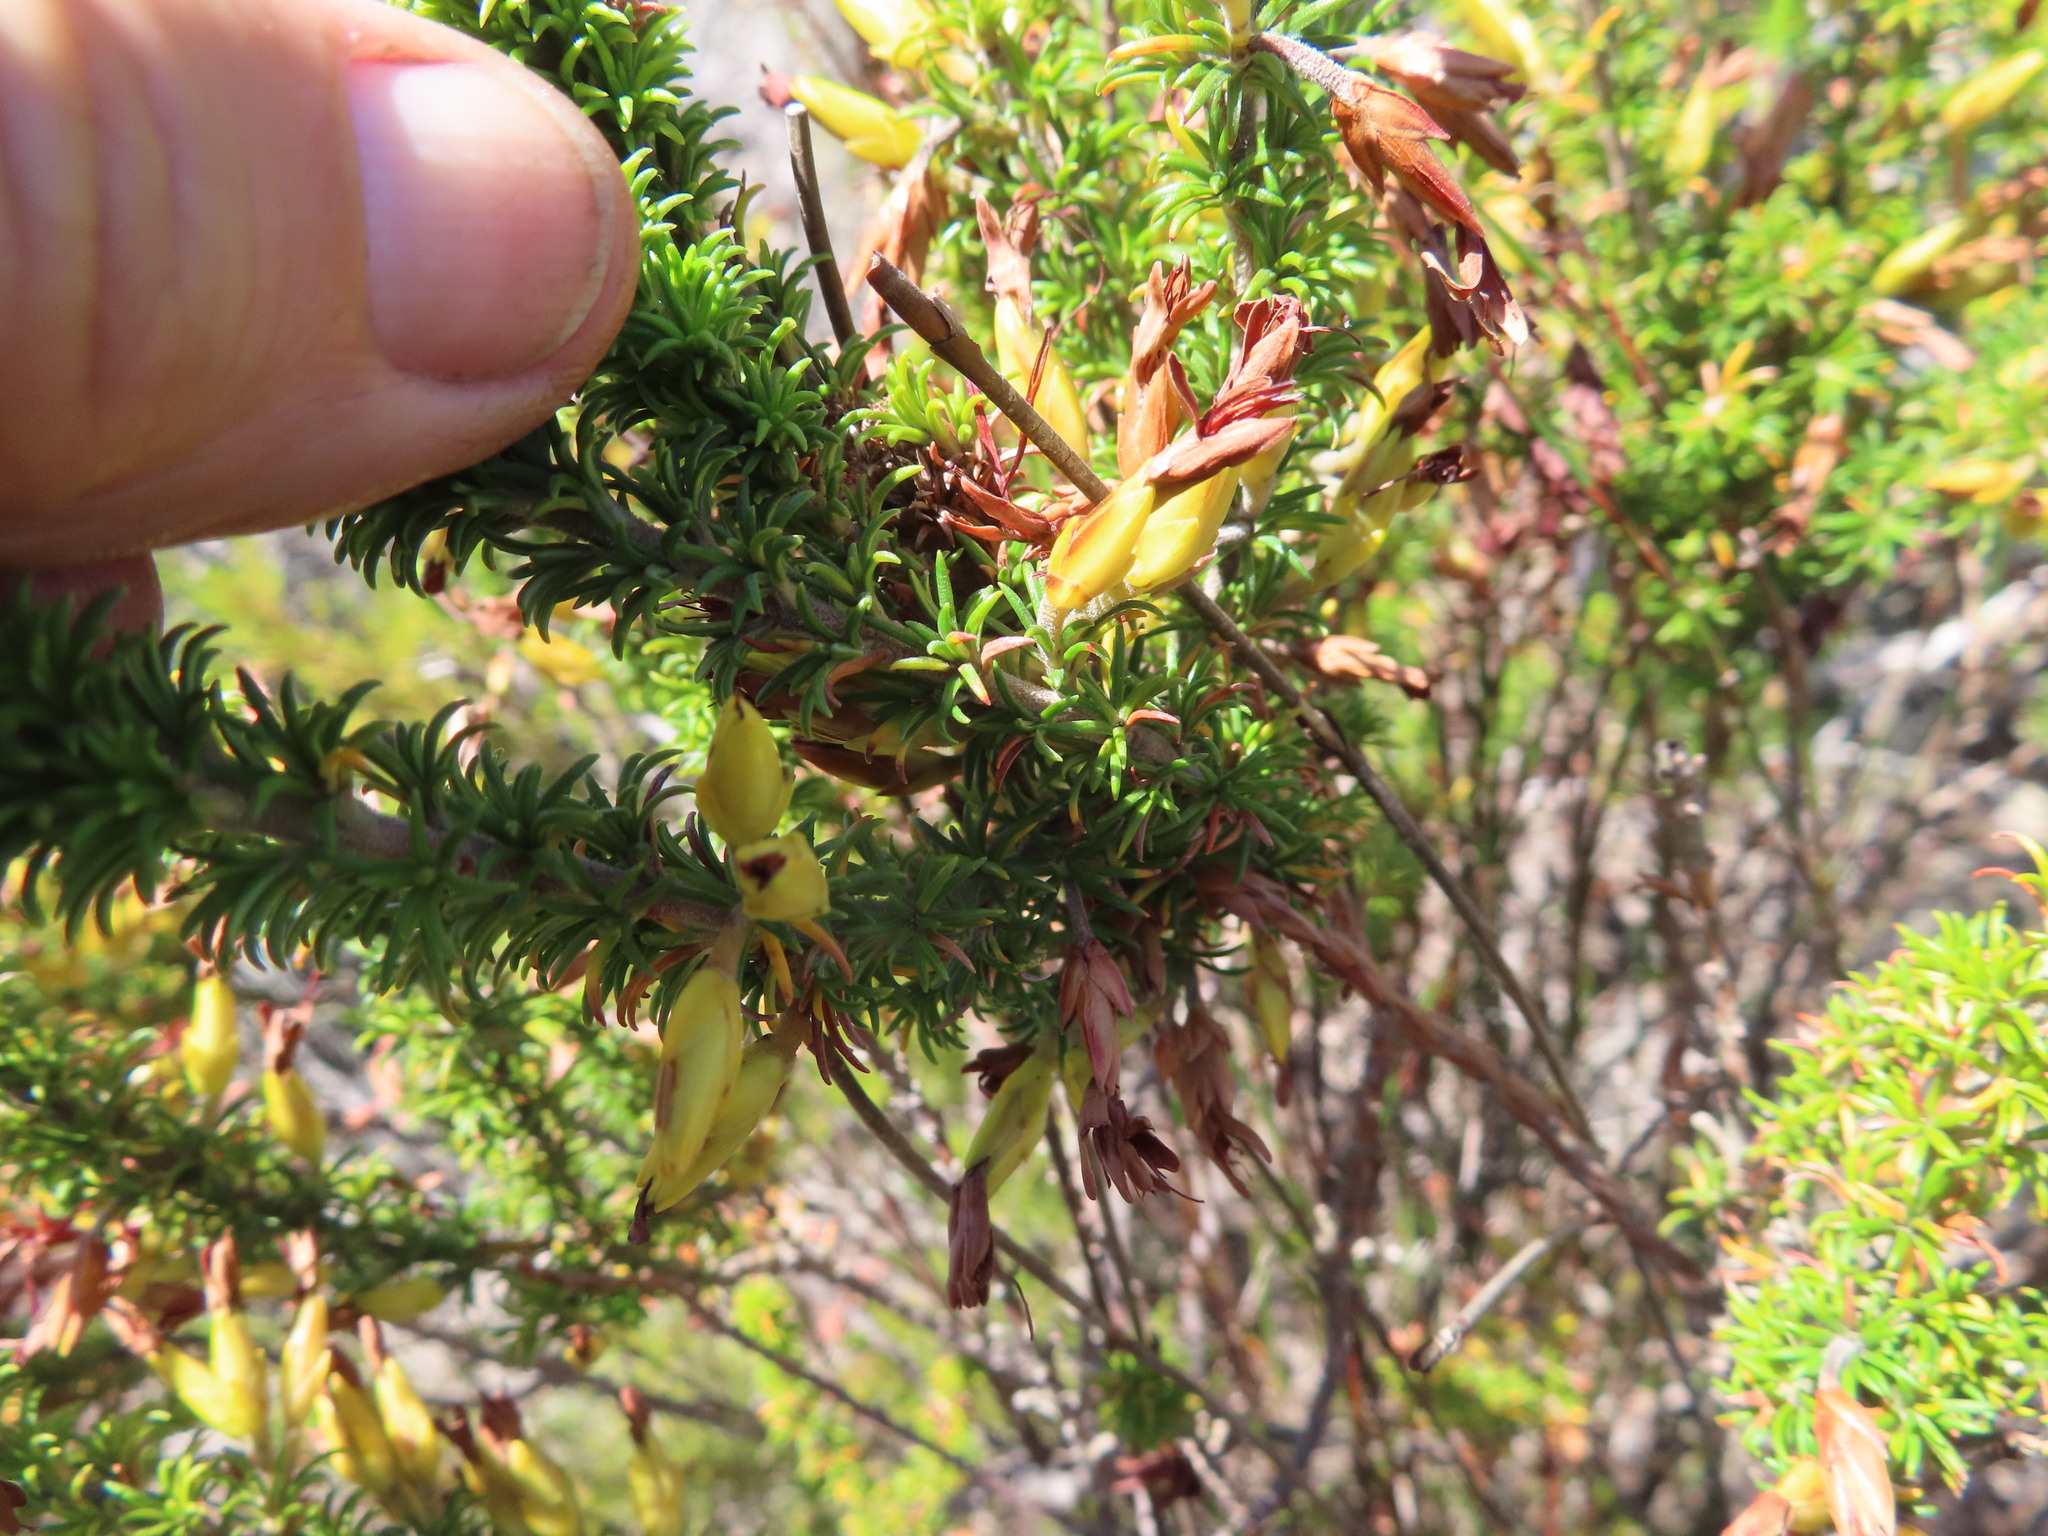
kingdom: Plantae
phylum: Tracheophyta
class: Magnoliopsida
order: Ericales
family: Ericaceae
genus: Erica
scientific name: Erica coccinea
